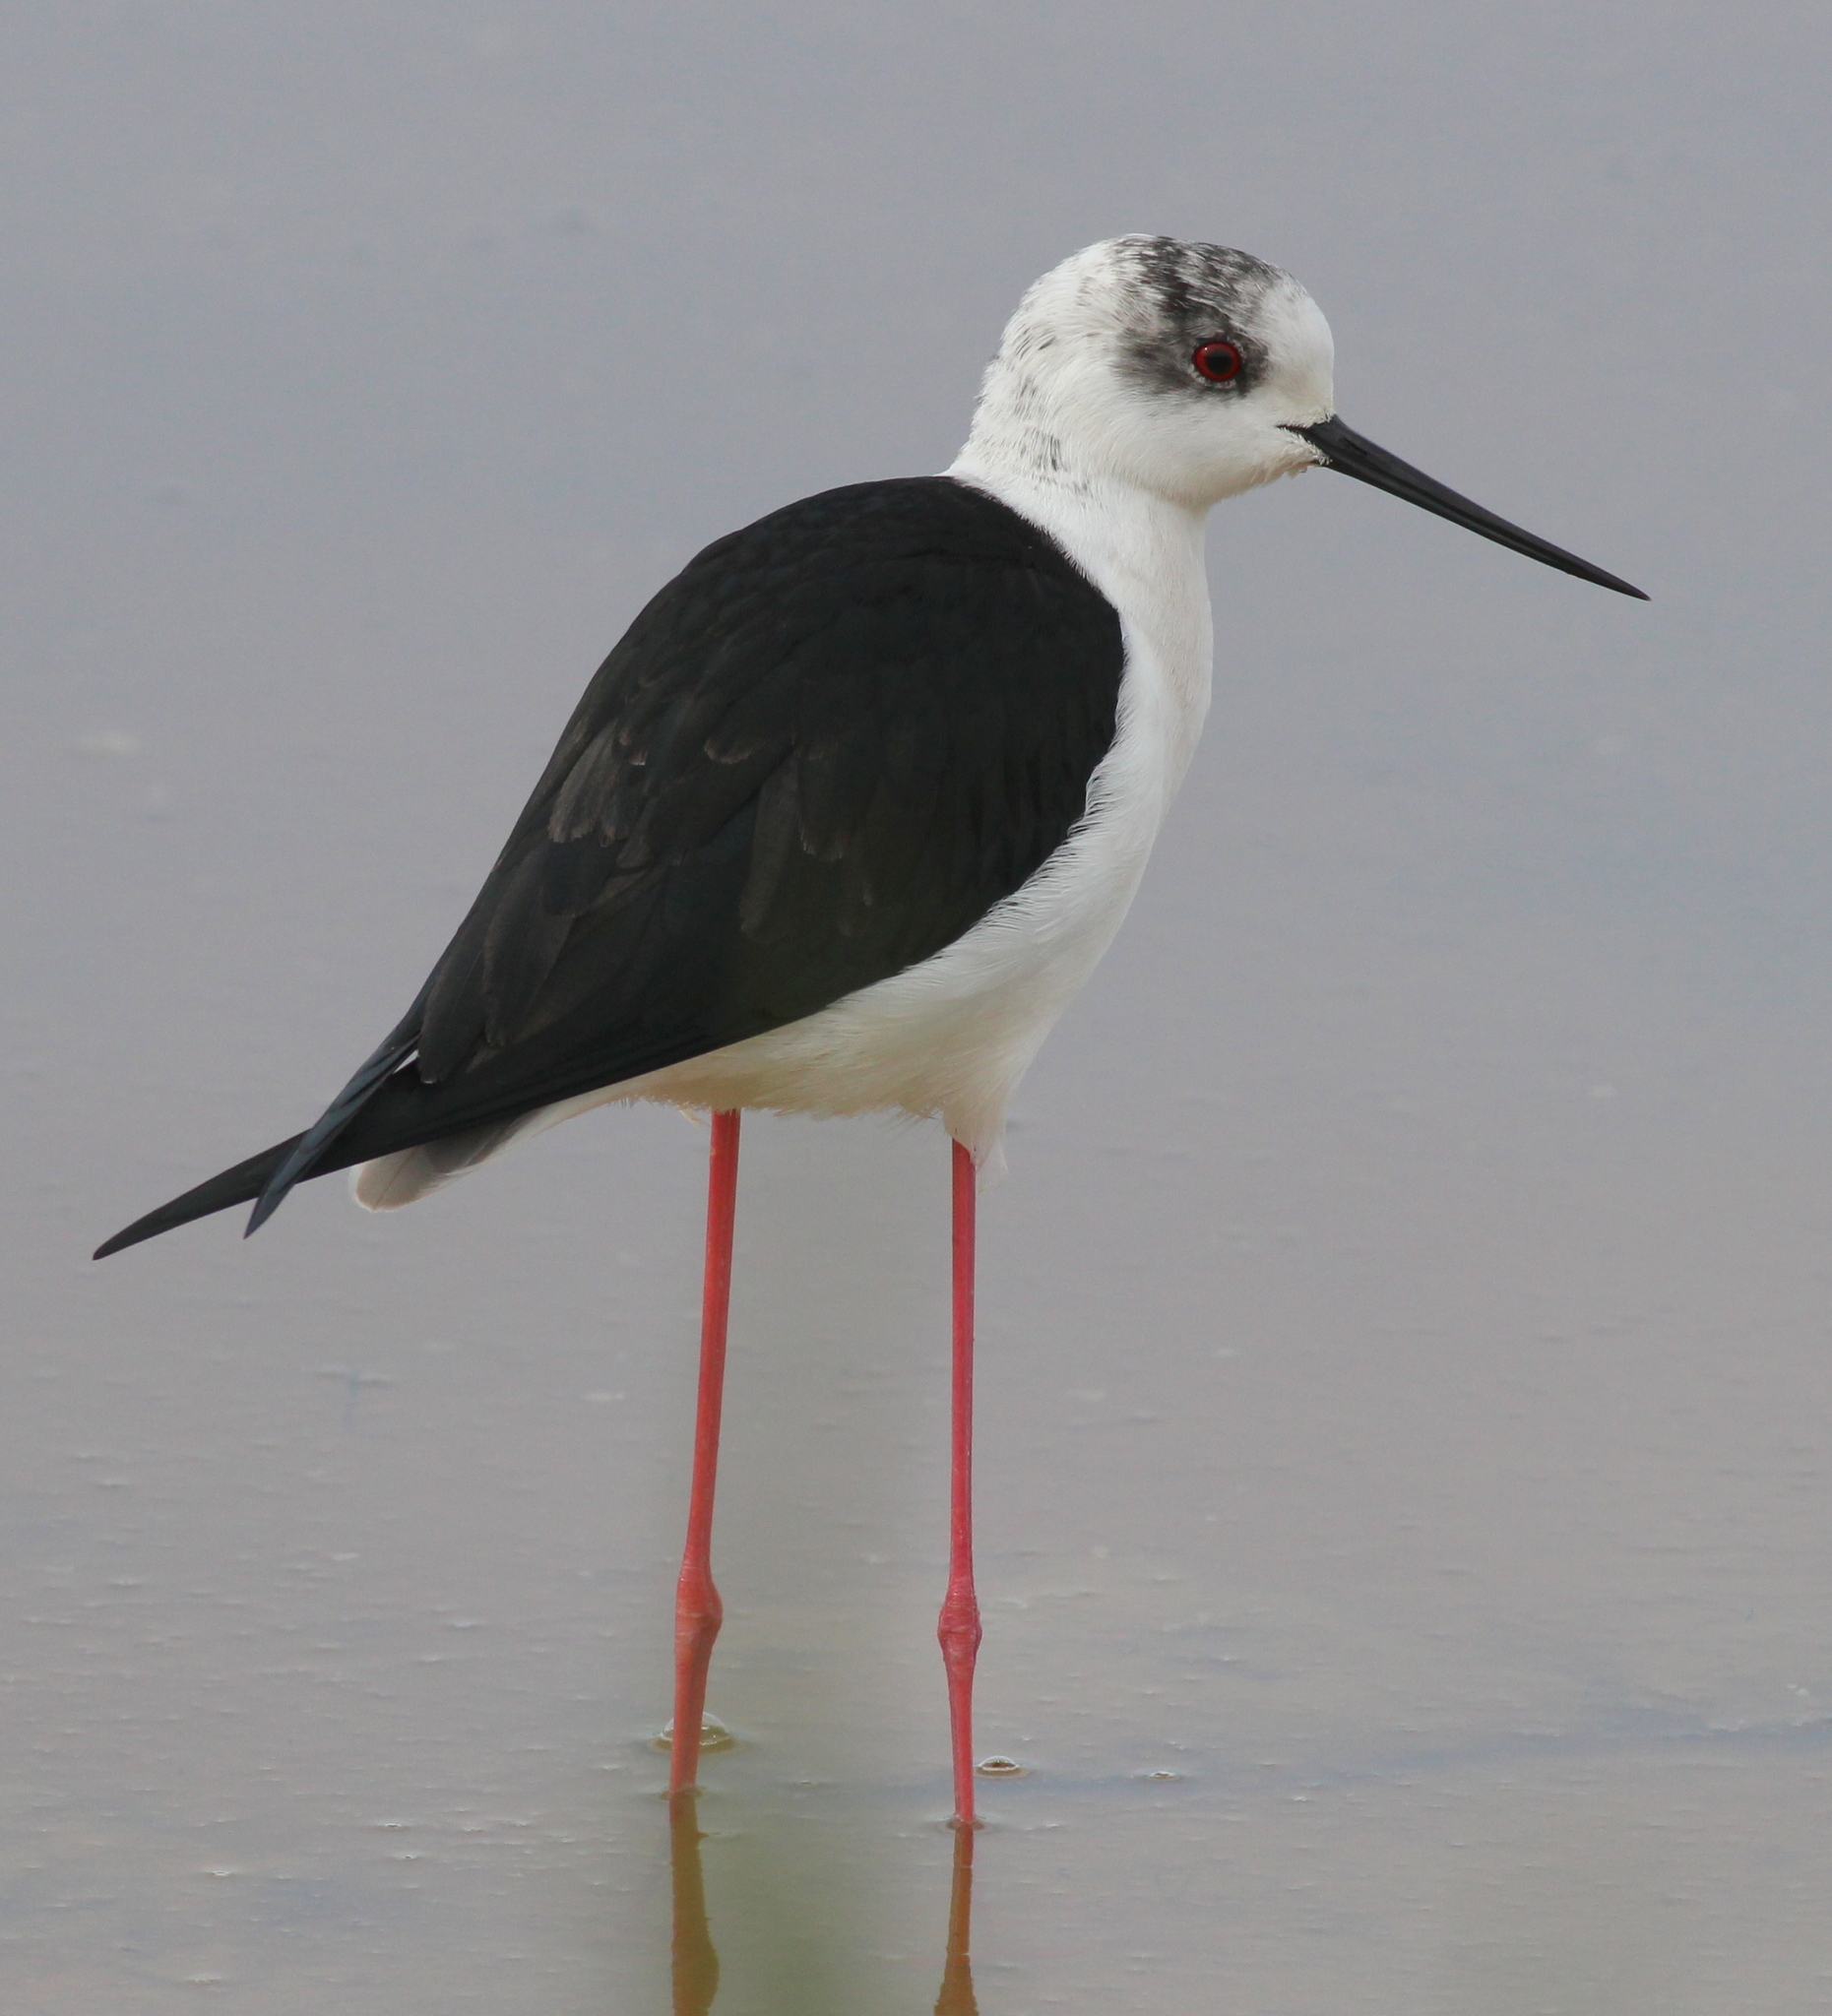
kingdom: Animalia
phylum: Chordata
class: Aves
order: Charadriiformes
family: Recurvirostridae
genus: Himantopus
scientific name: Himantopus himantopus
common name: Black-winged stilt
